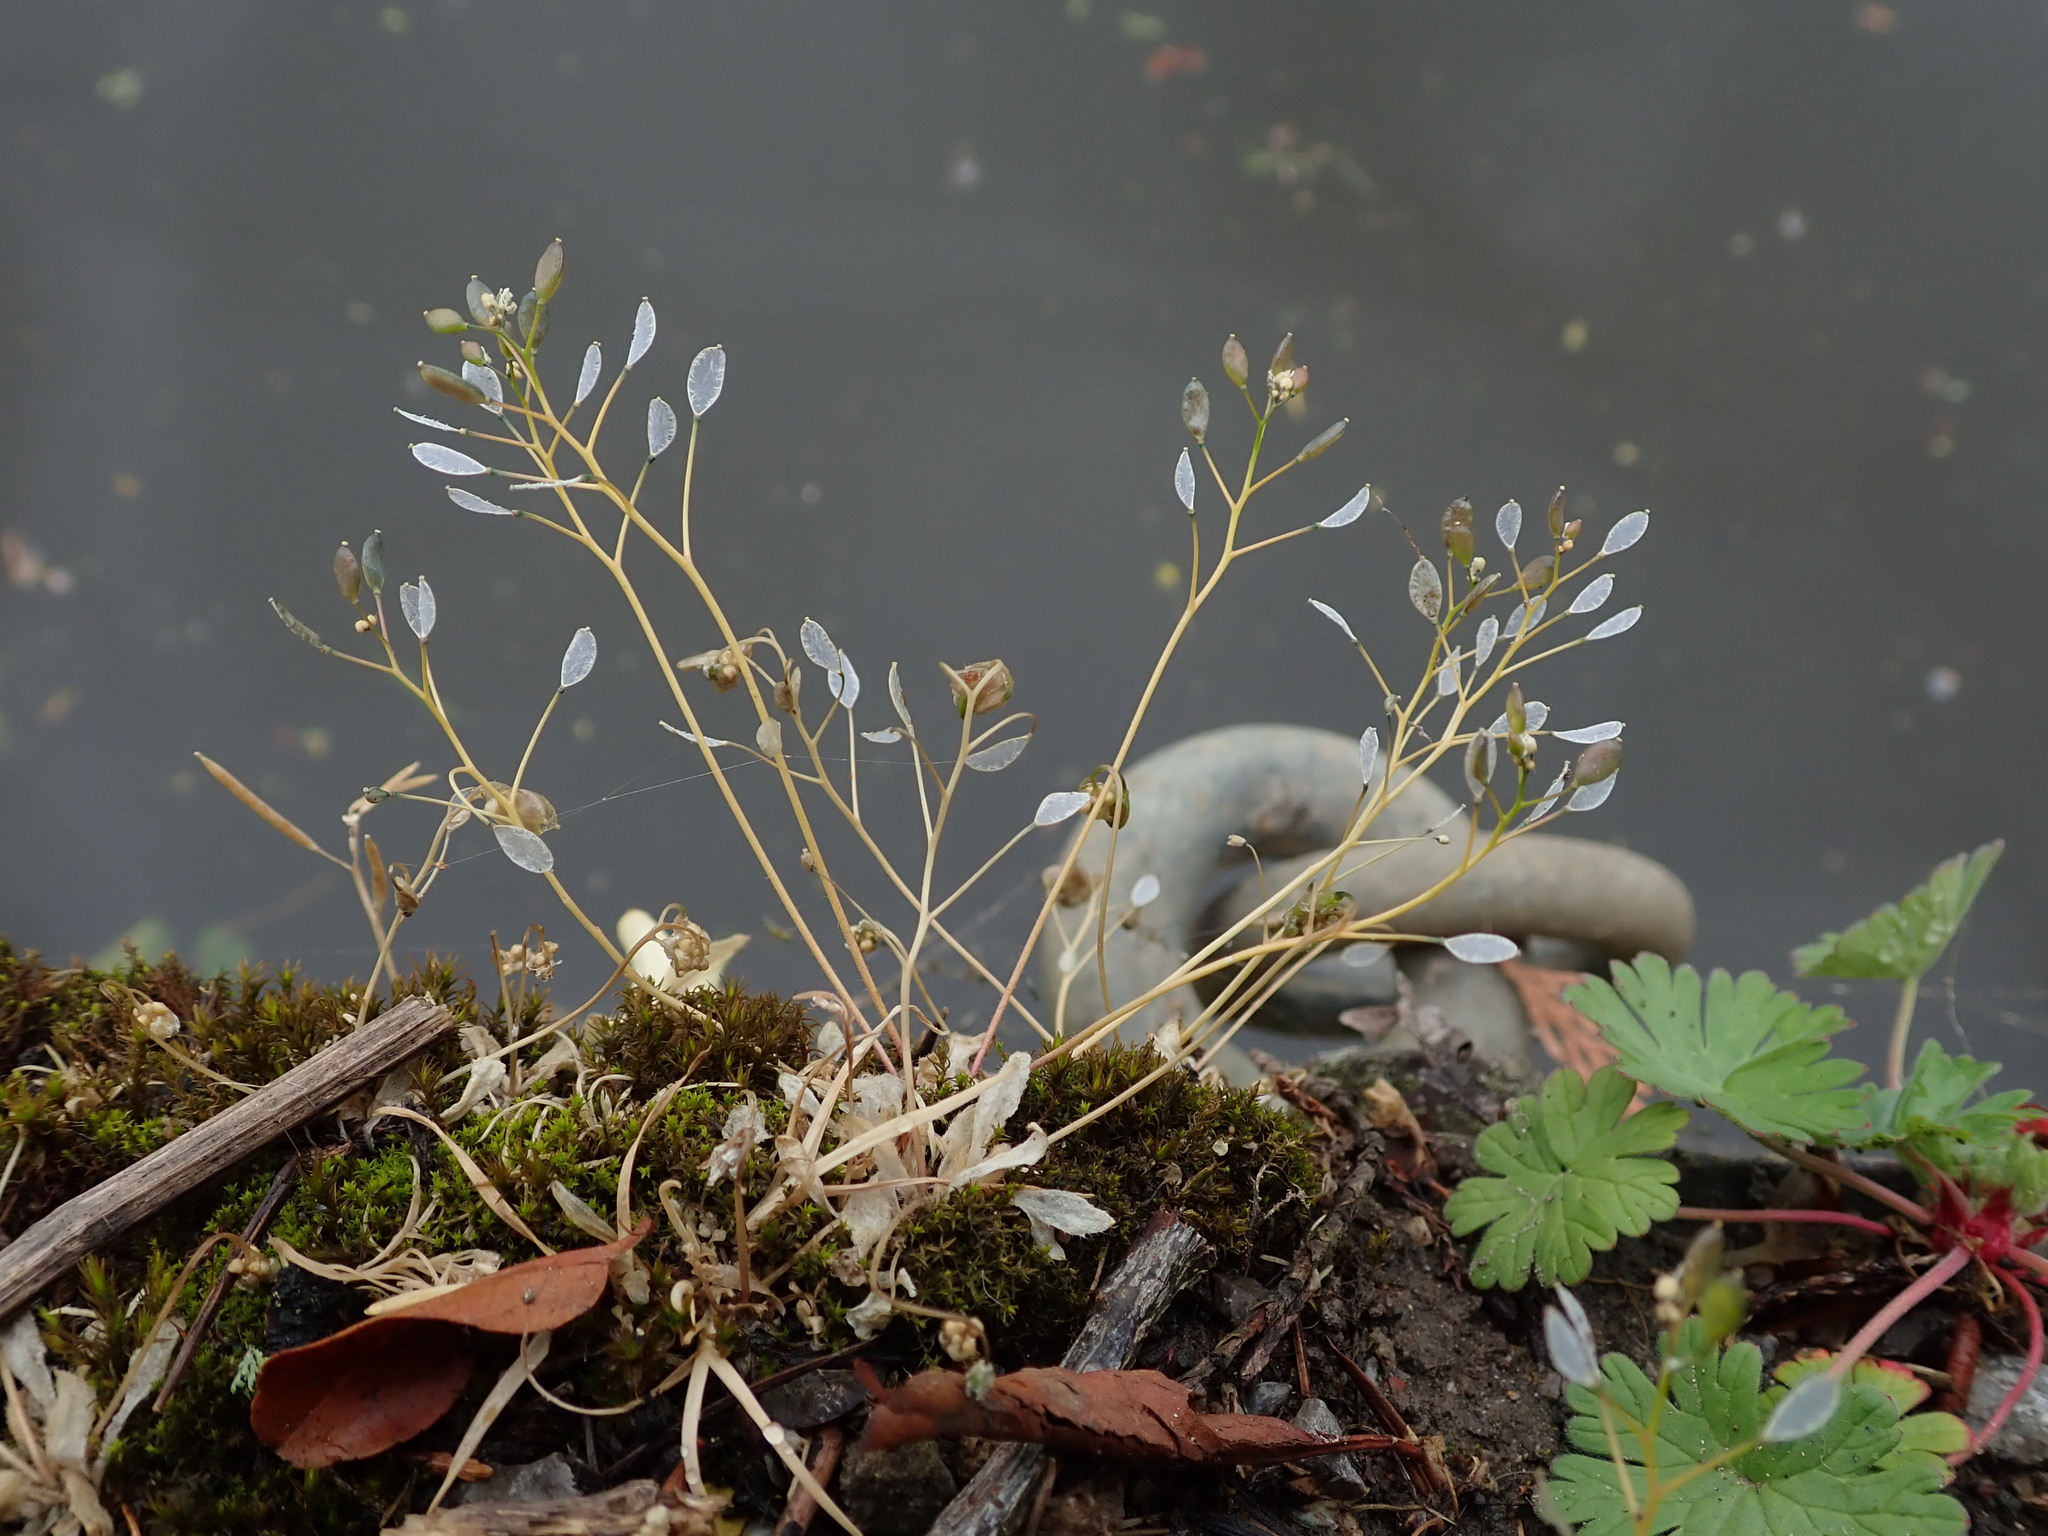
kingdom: Plantae
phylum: Tracheophyta
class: Magnoliopsida
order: Brassicales
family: Brassicaceae
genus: Draba
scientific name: Draba verna
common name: Spring draba
